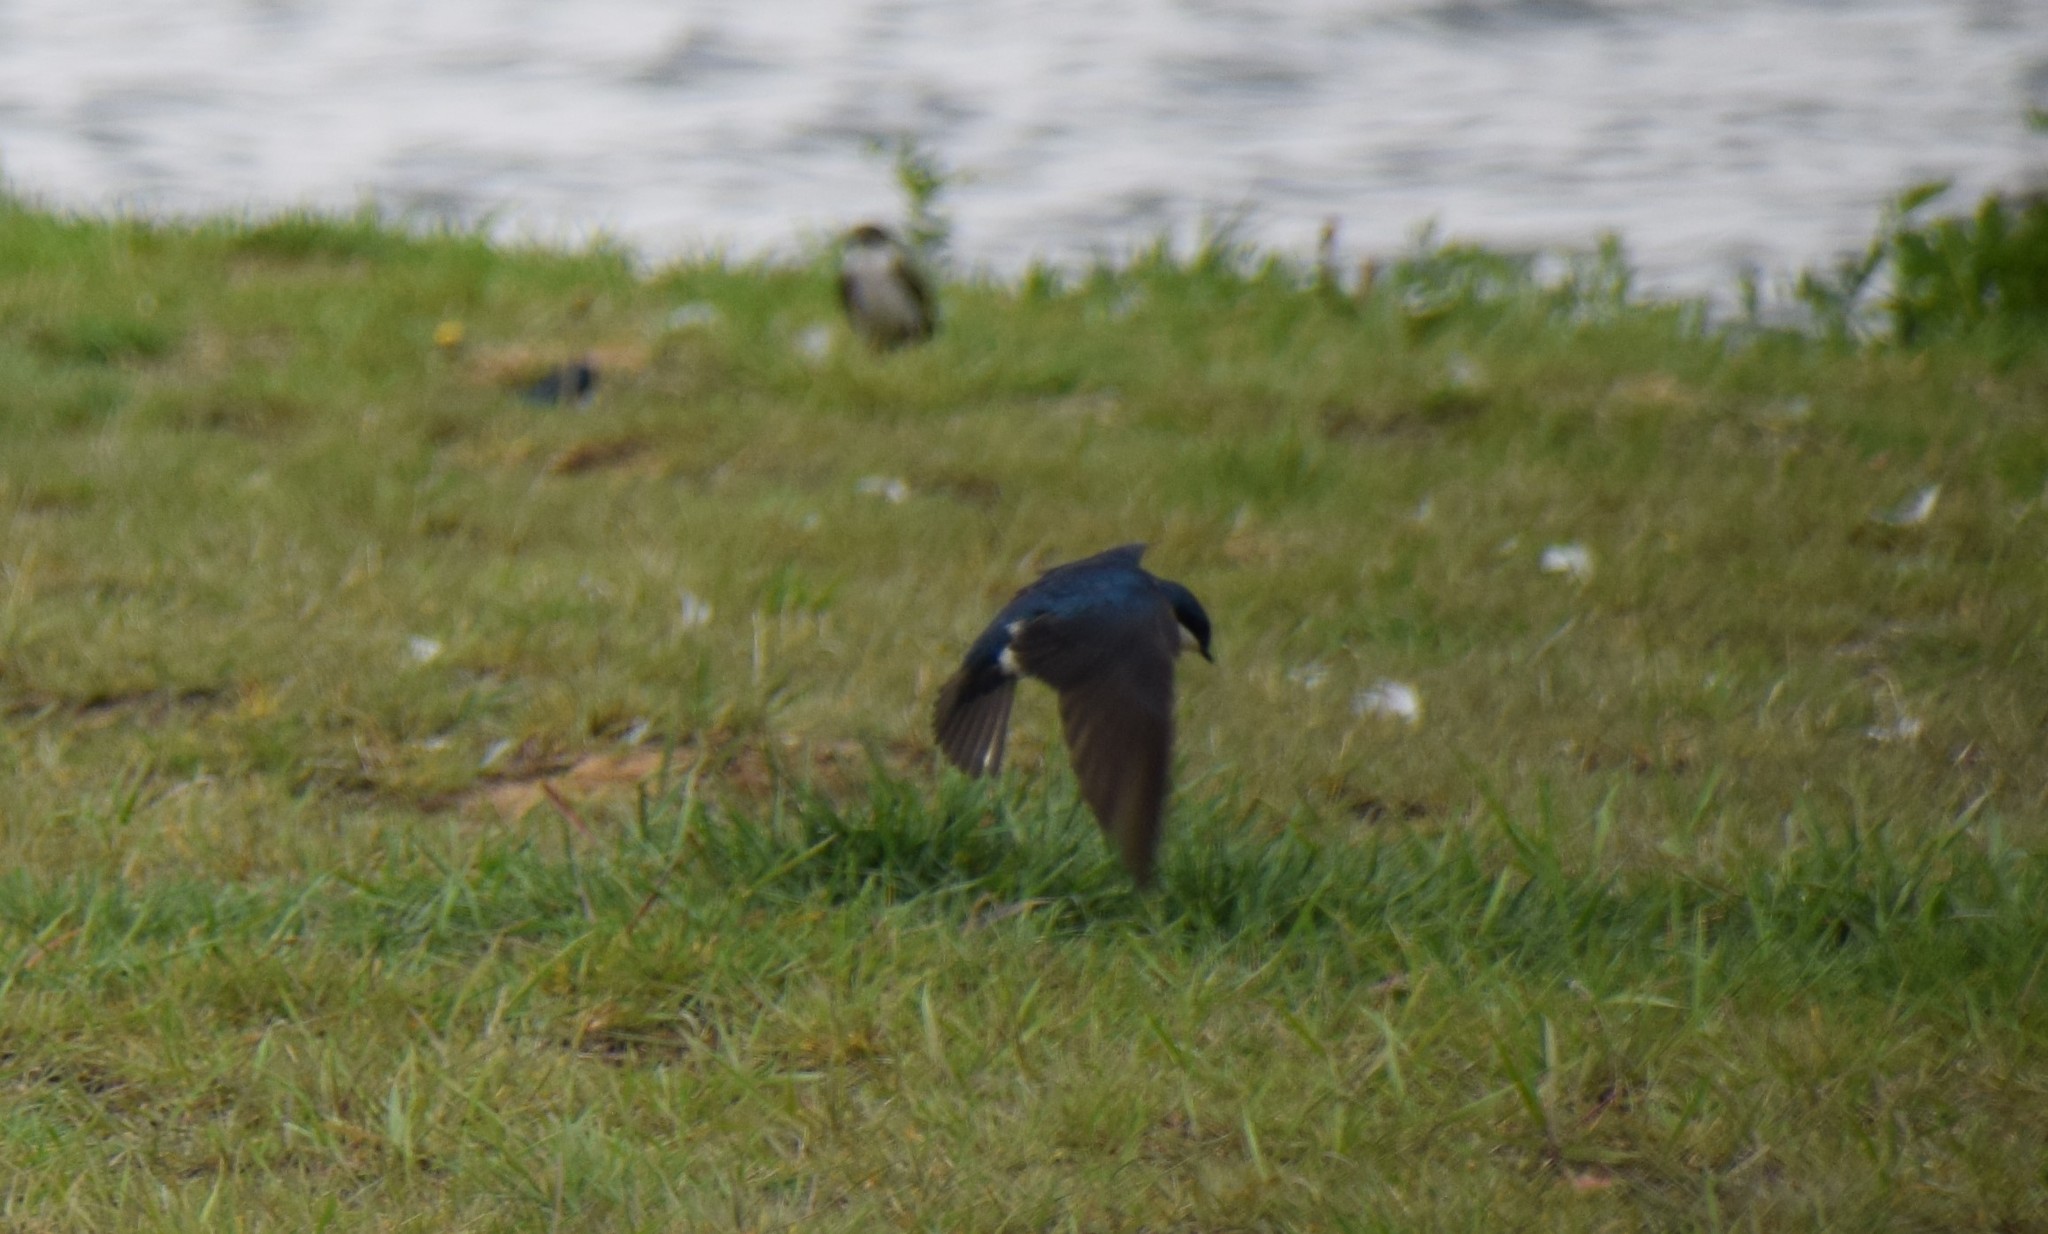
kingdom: Animalia
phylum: Chordata
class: Aves
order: Passeriformes
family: Hirundinidae
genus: Tachycineta
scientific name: Tachycineta bicolor
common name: Tree swallow
